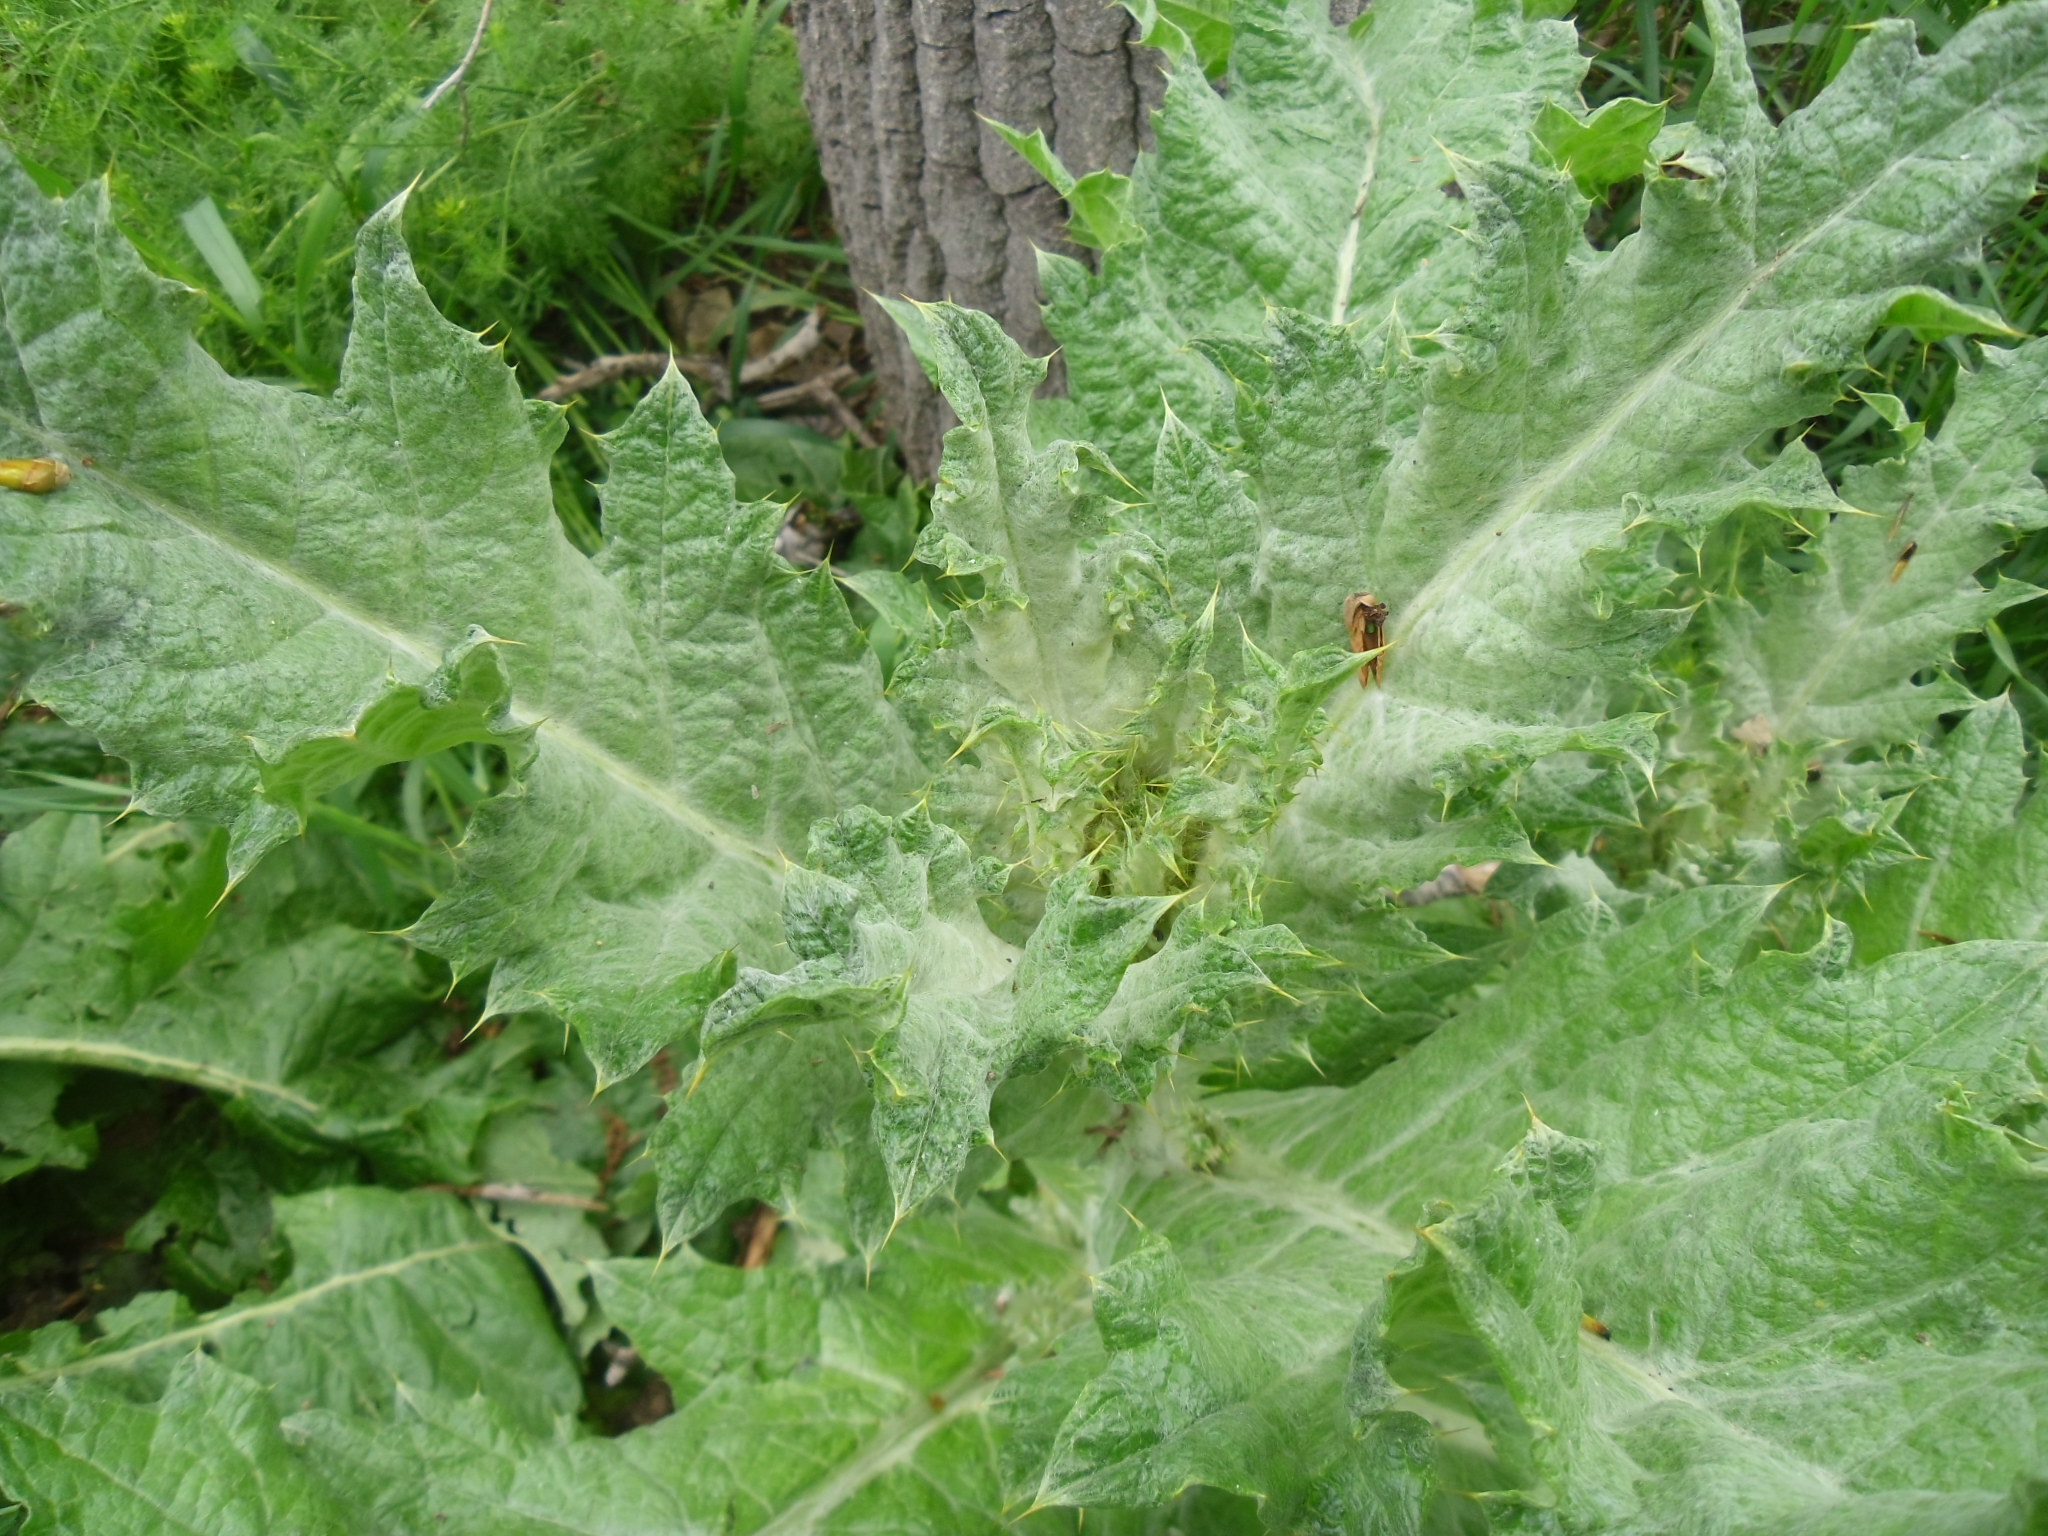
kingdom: Plantae
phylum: Tracheophyta
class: Magnoliopsida
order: Asterales
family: Asteraceae
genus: Onopordum
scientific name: Onopordum acanthium
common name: Scotch thistle
